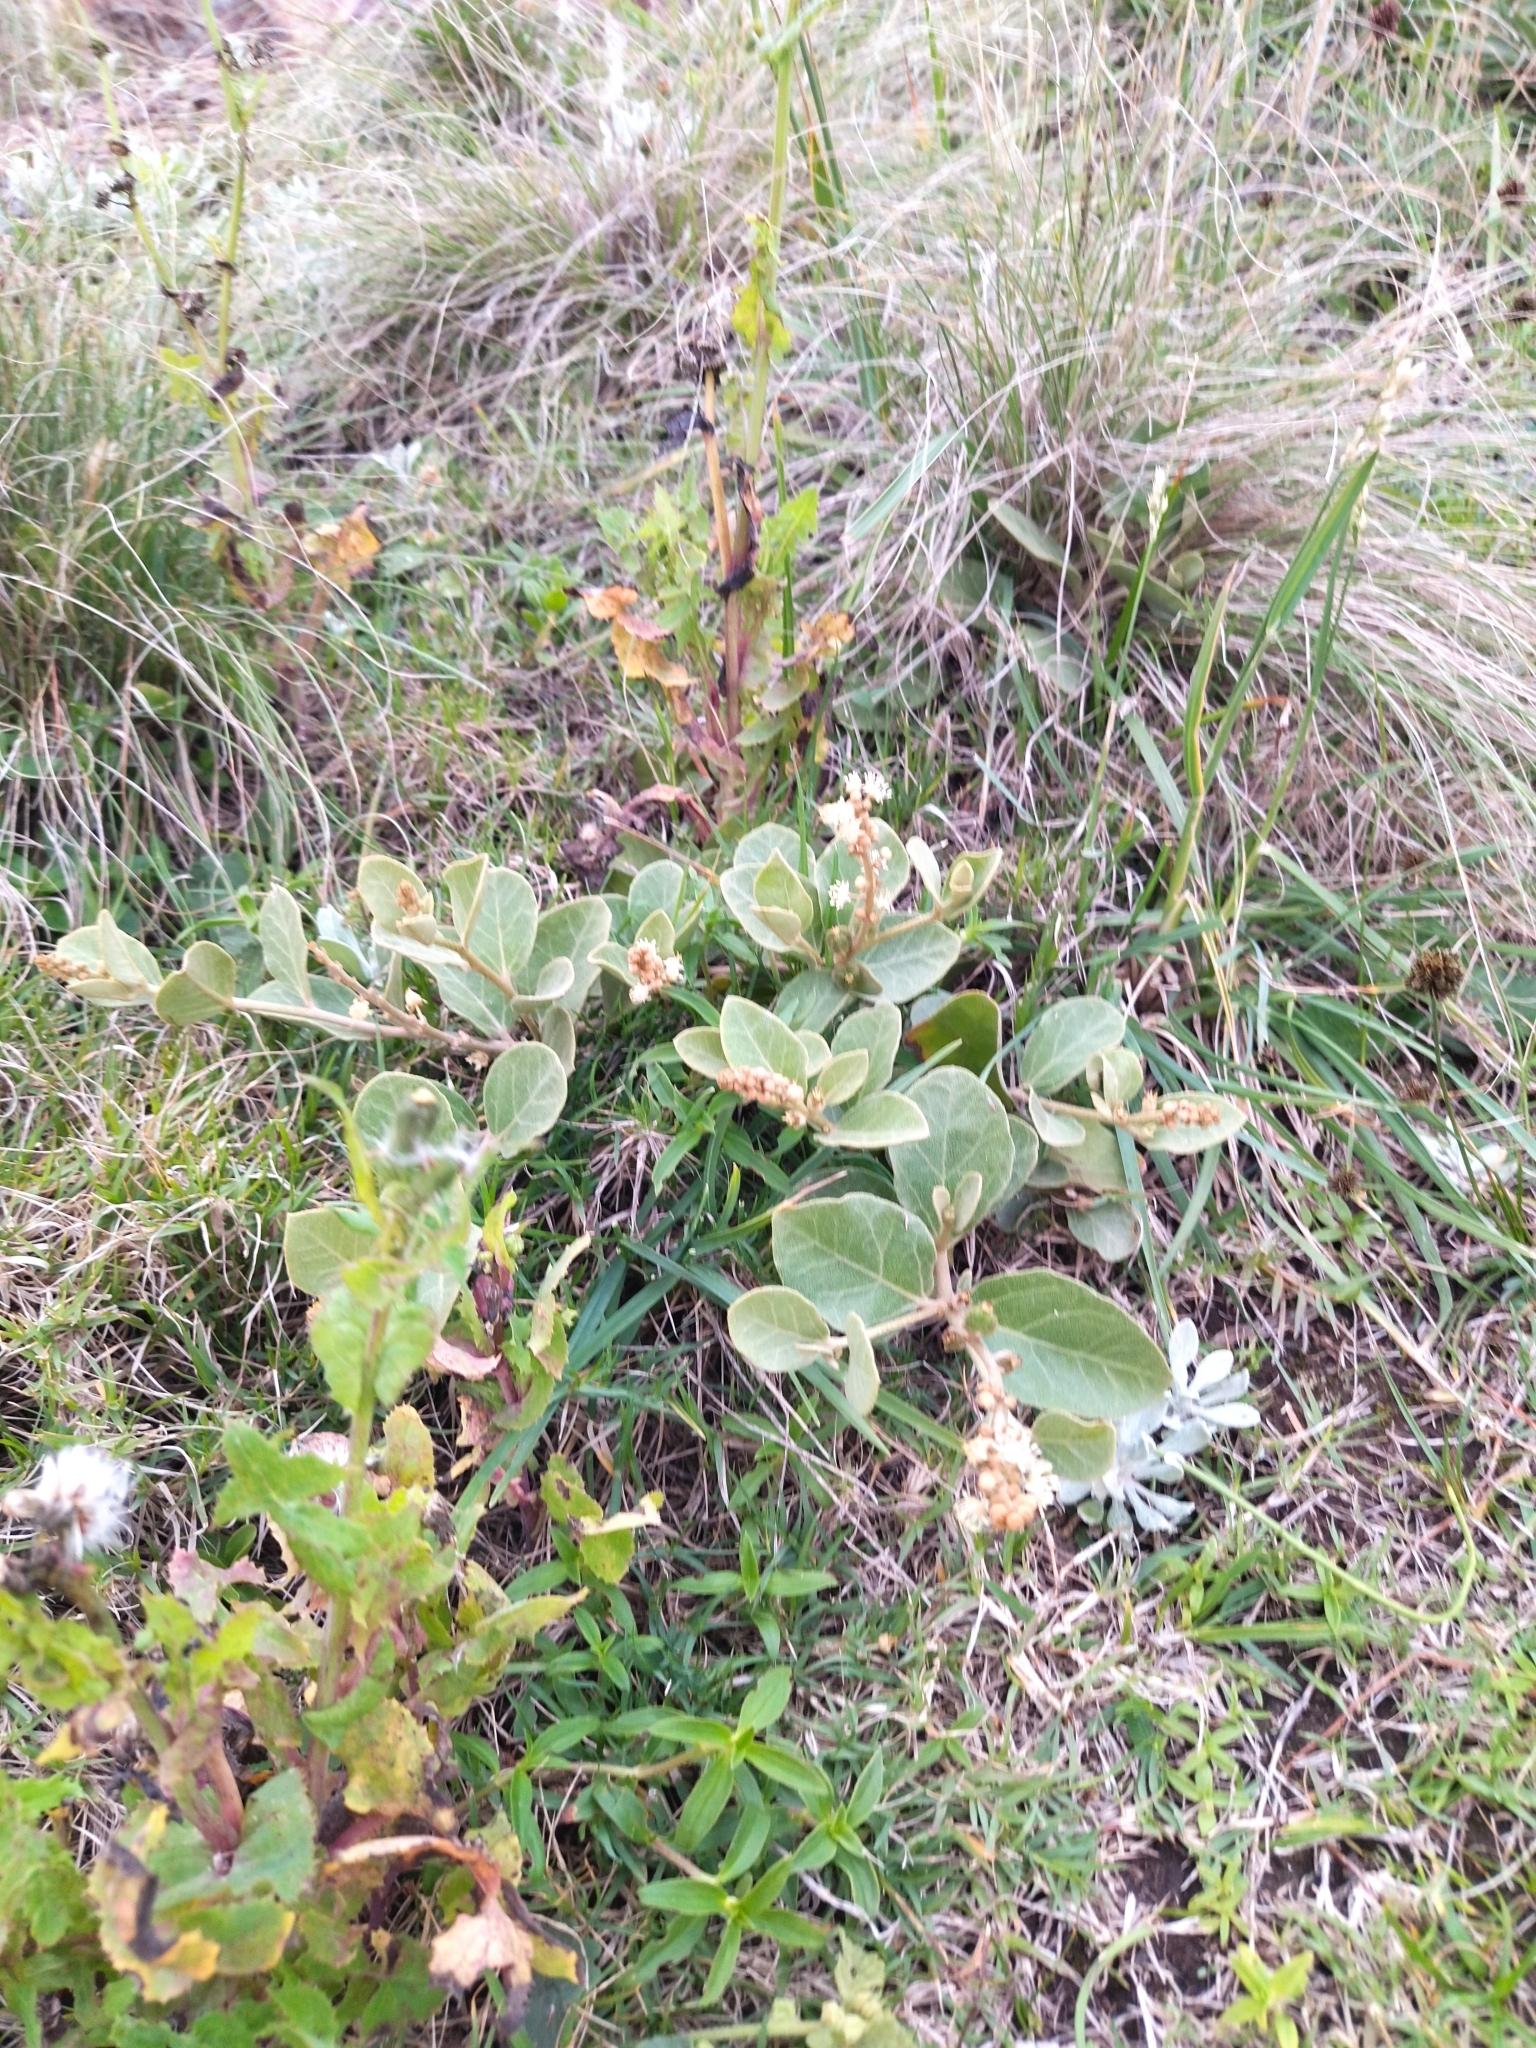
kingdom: Plantae
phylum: Tracheophyta
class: Magnoliopsida
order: Malpighiales
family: Euphorbiaceae
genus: Croton
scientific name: Croton lanatus
